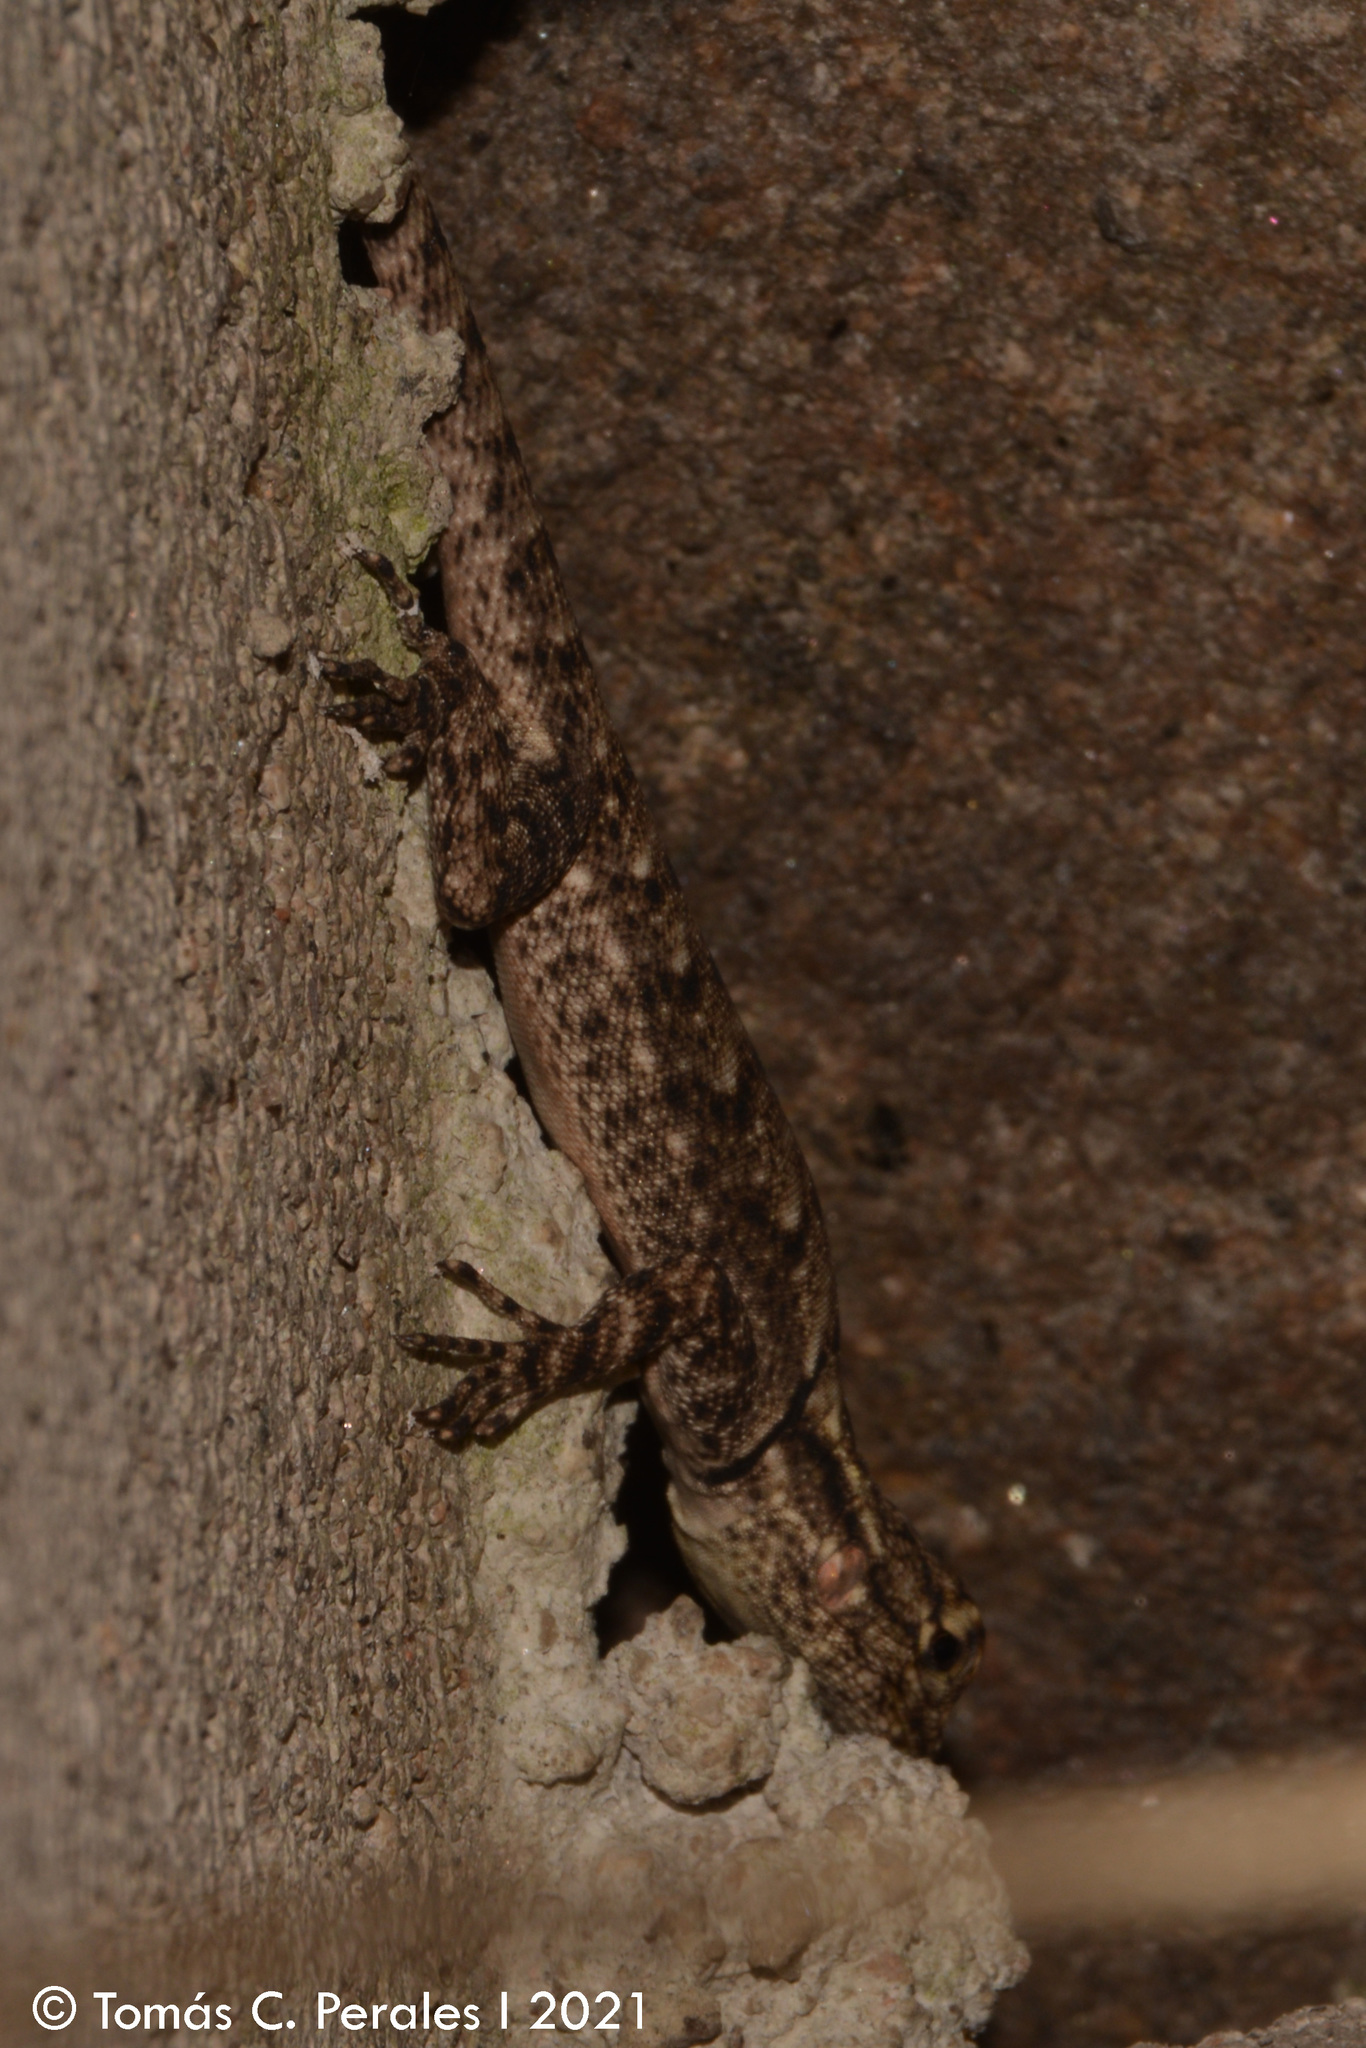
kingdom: Animalia
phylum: Chordata
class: Squamata
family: Tropiduridae
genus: Tropidurus
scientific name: Tropidurus spinulosus
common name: Spiny lava lizard
